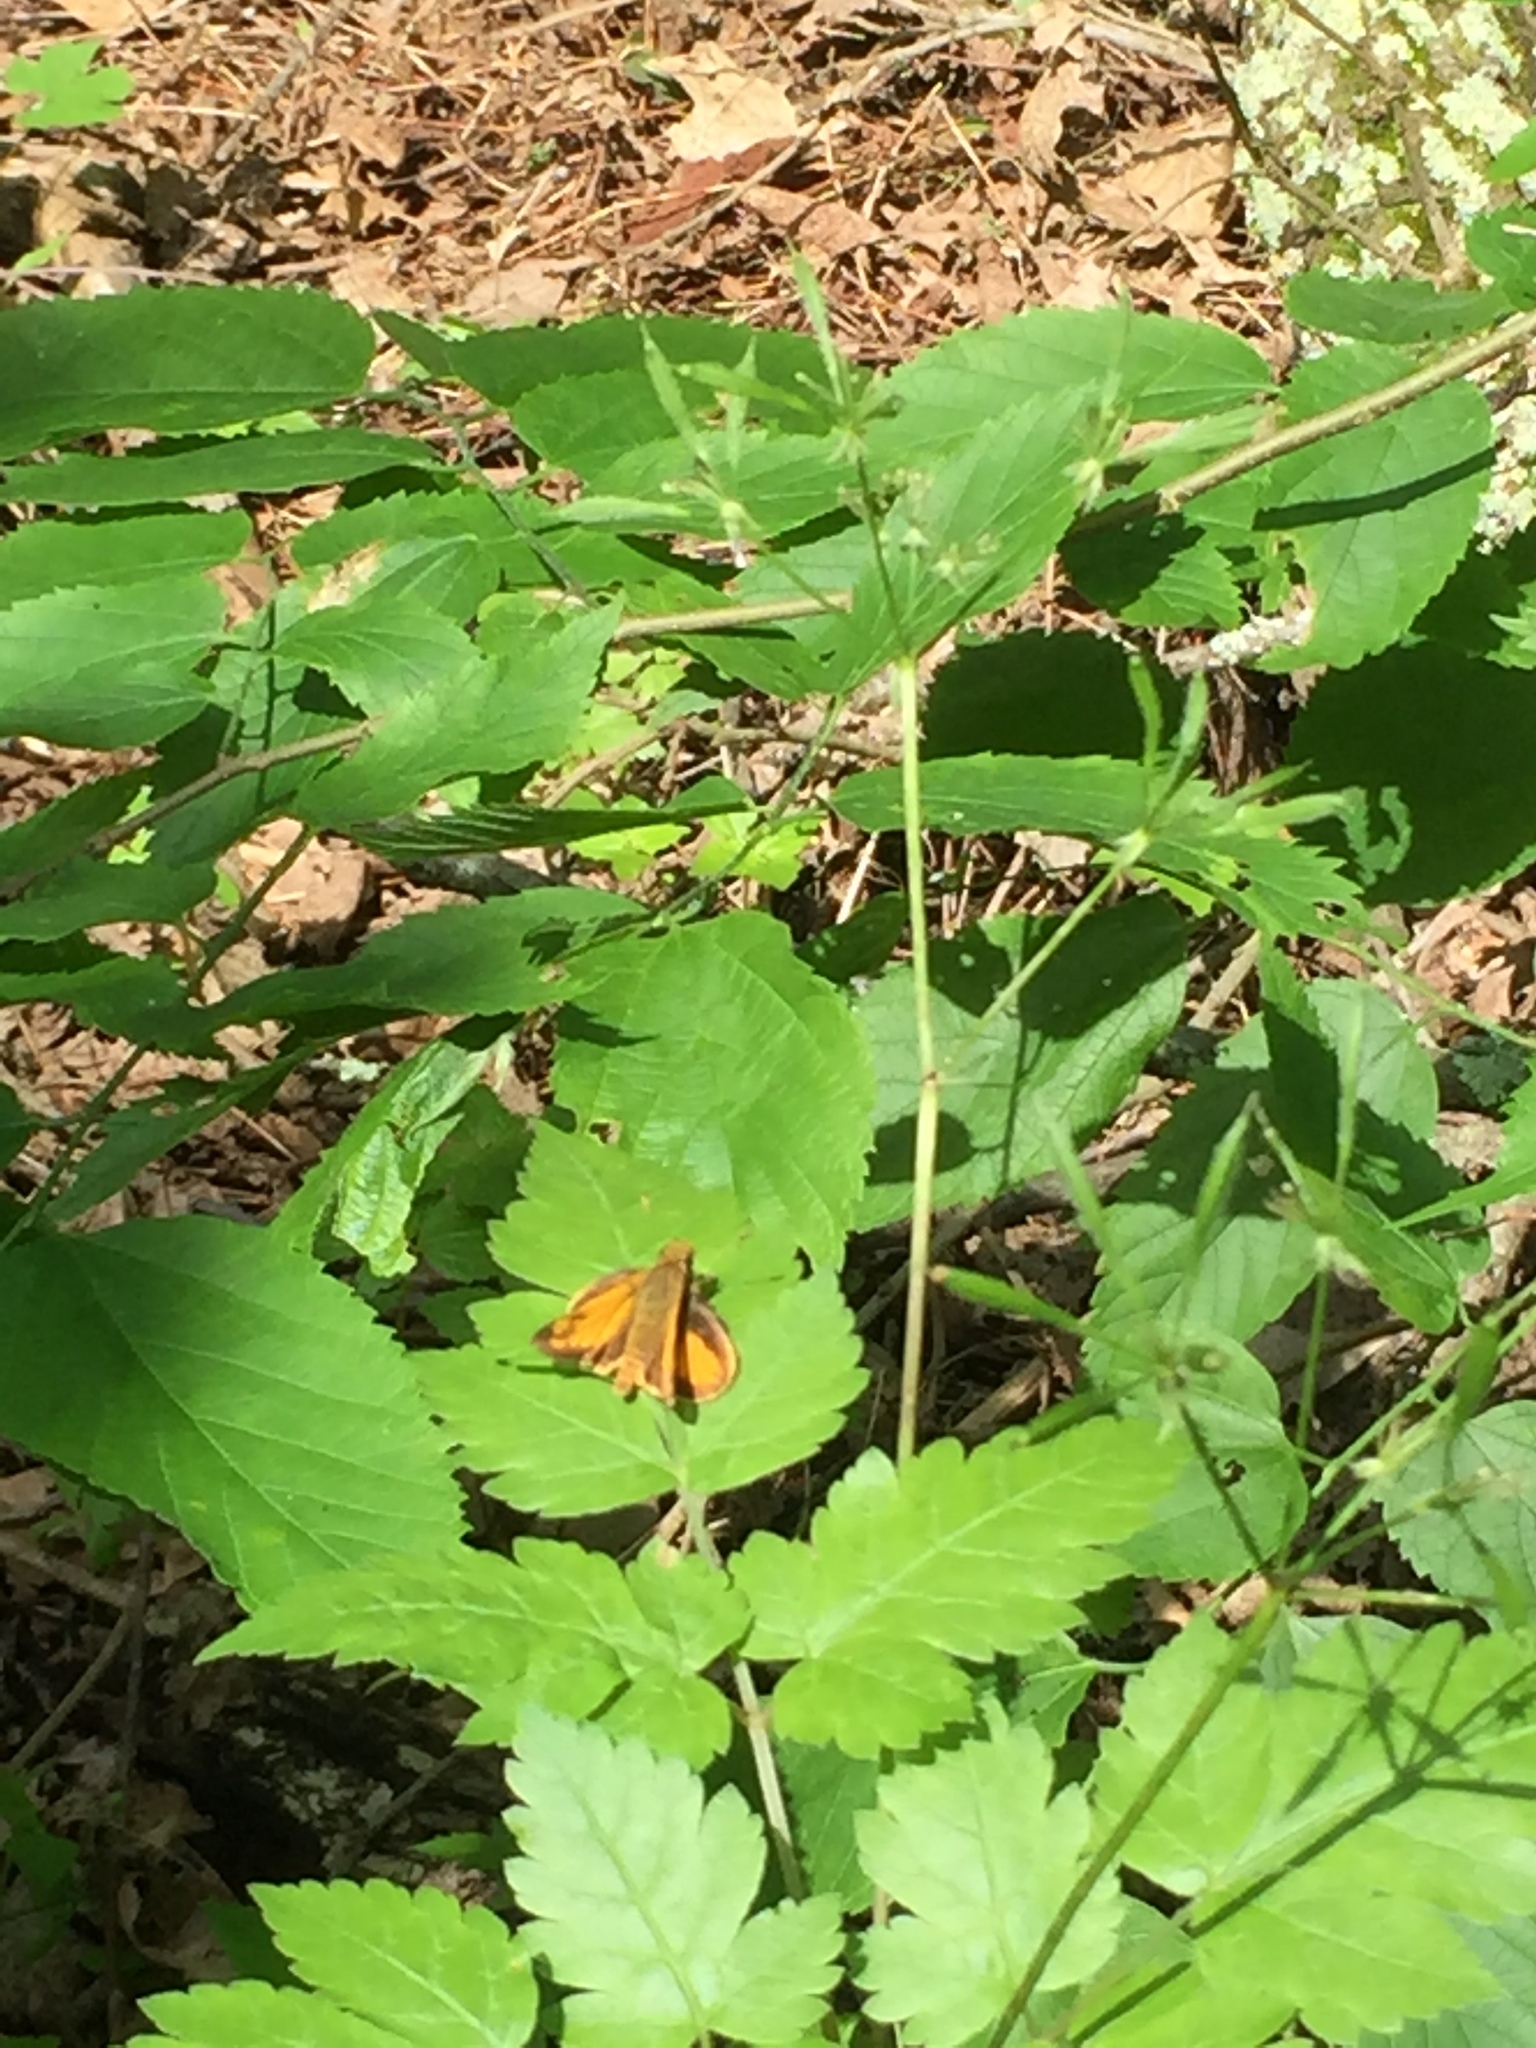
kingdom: Animalia
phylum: Arthropoda
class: Insecta
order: Lepidoptera
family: Hesperiidae
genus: Lon
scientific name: Lon zabulon
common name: Zabulon skipper
